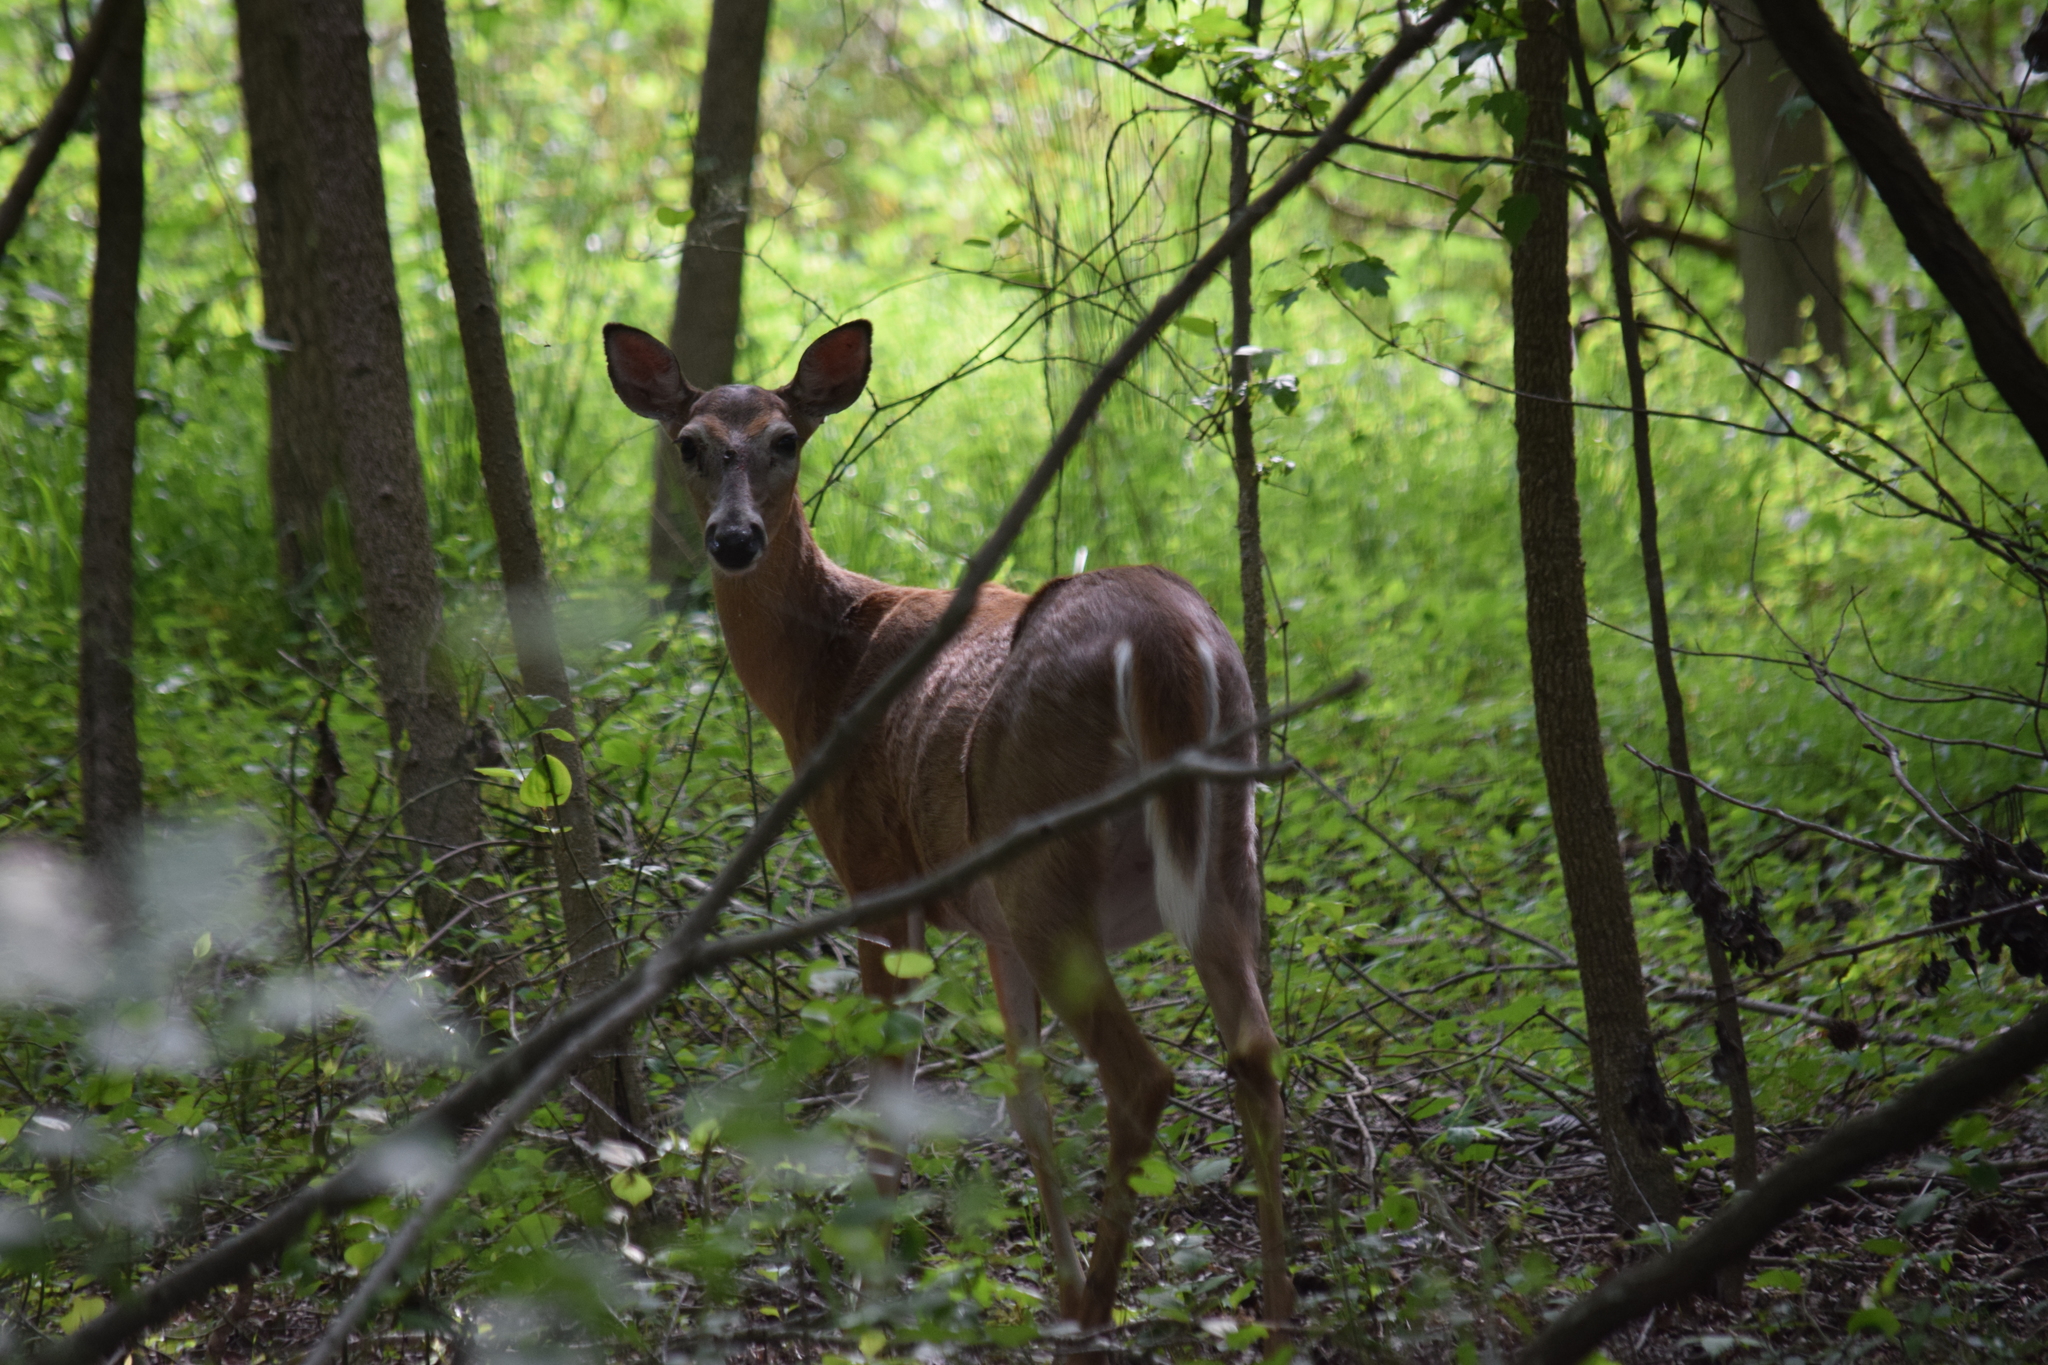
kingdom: Animalia
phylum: Chordata
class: Mammalia
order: Artiodactyla
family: Cervidae
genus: Odocoileus
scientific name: Odocoileus virginianus
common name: White-tailed deer
